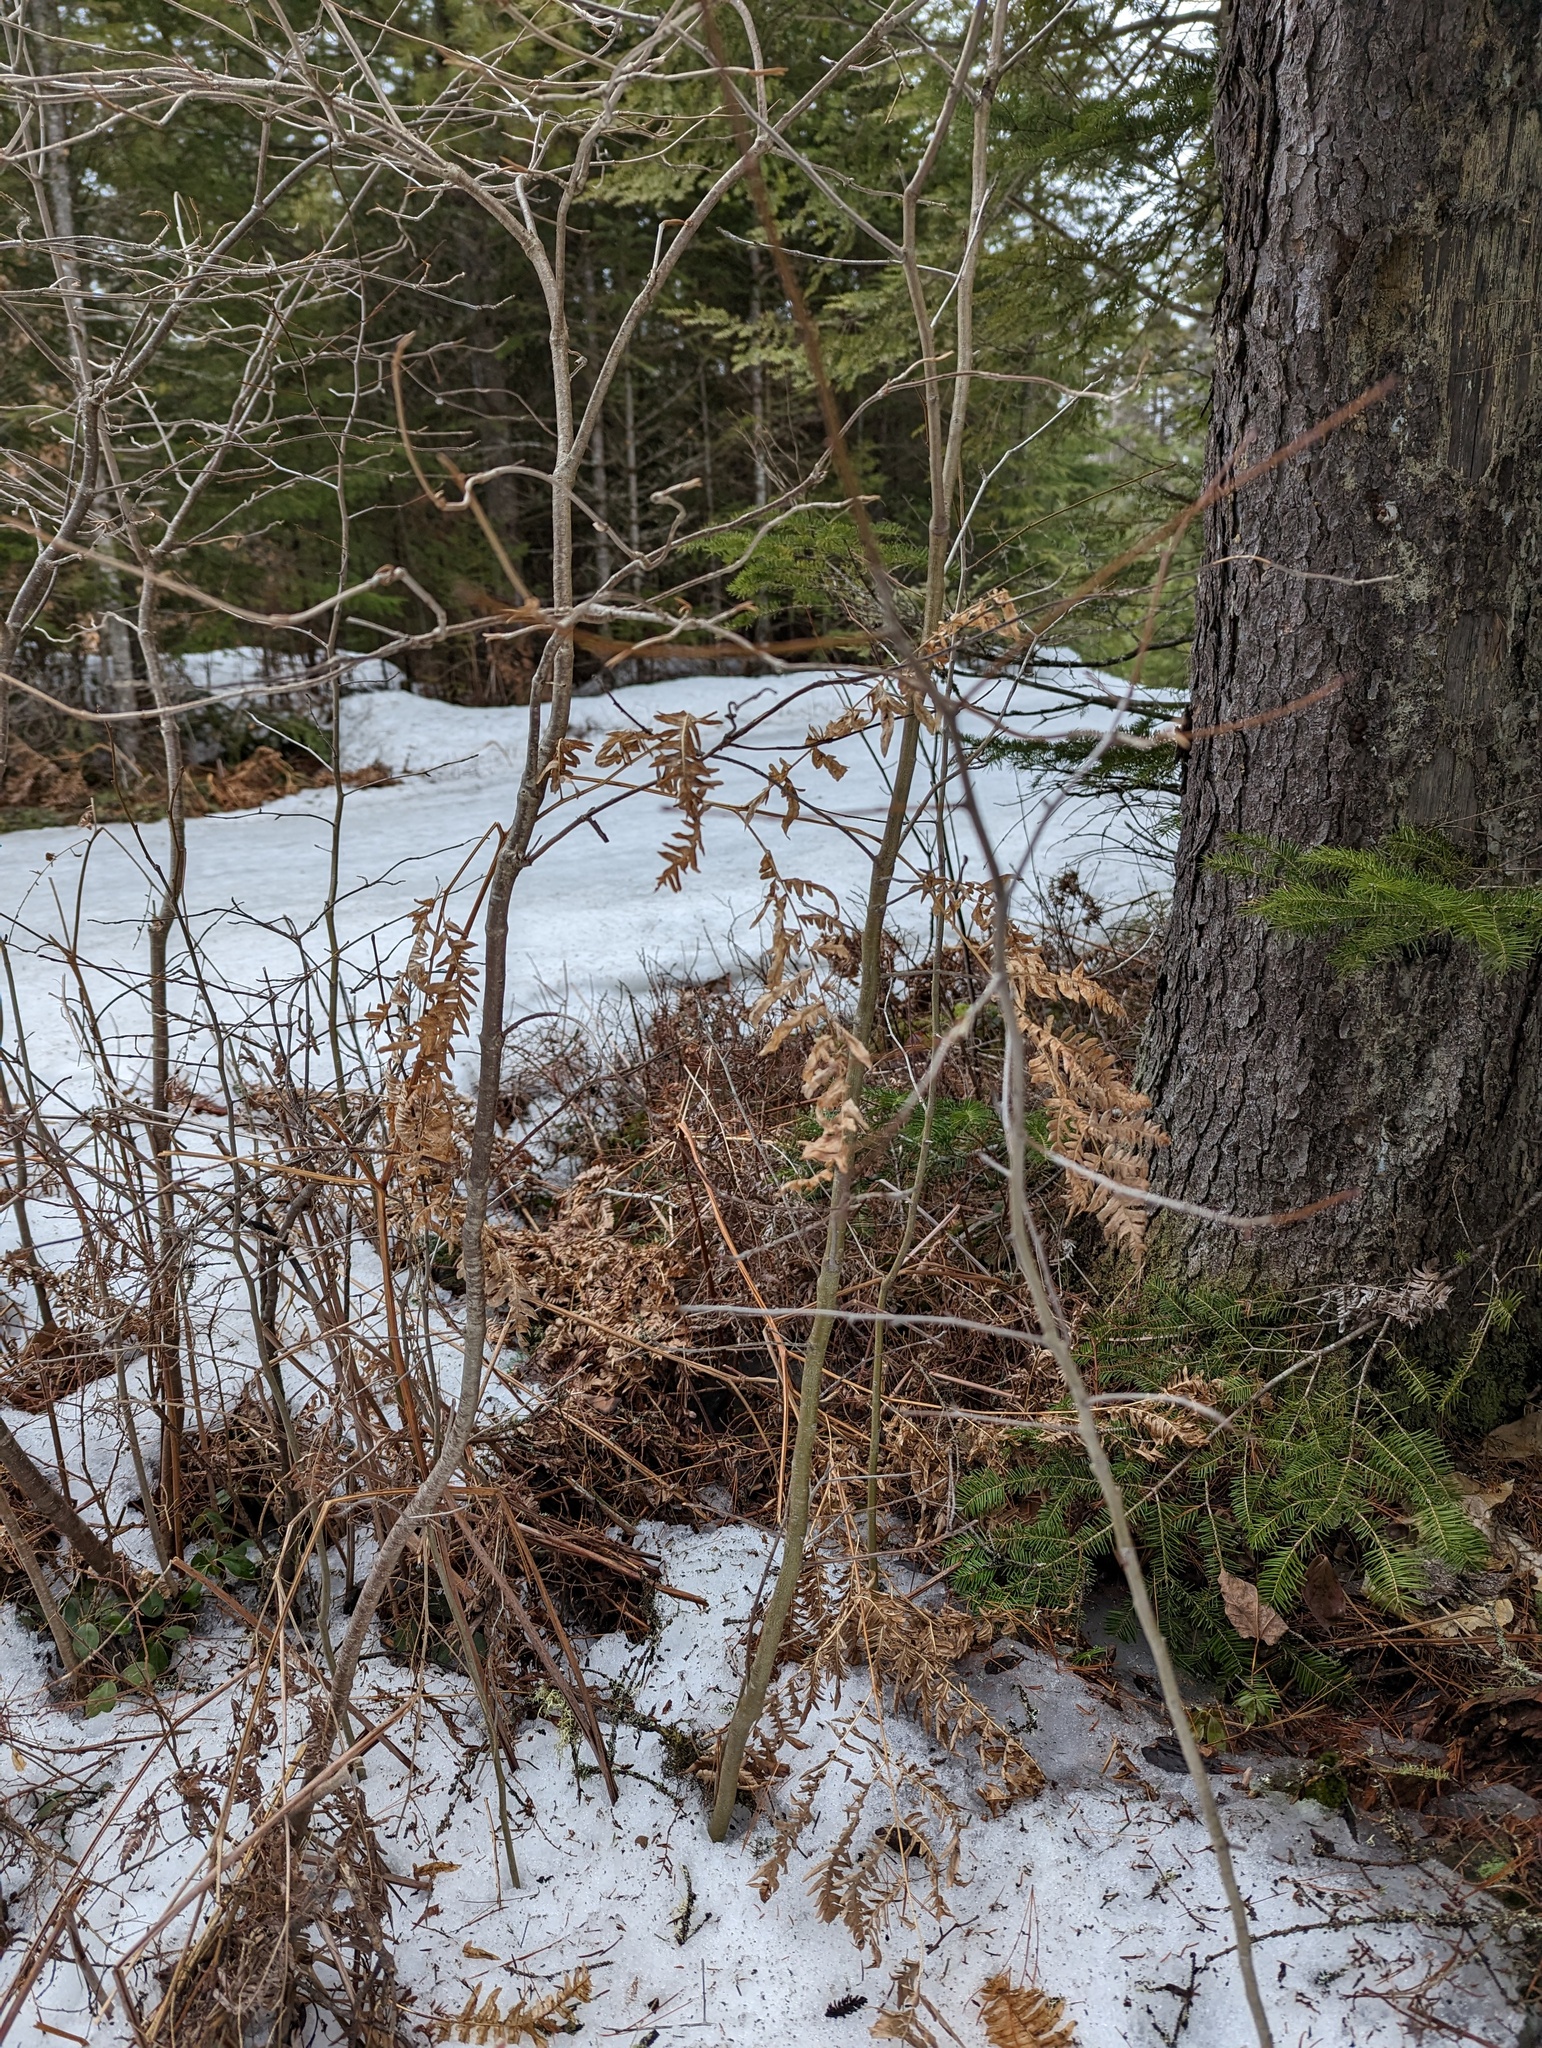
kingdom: Plantae
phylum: Tracheophyta
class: Polypodiopsida
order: Polypodiales
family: Dennstaedtiaceae
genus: Pteridium
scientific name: Pteridium aquilinum
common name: Bracken
